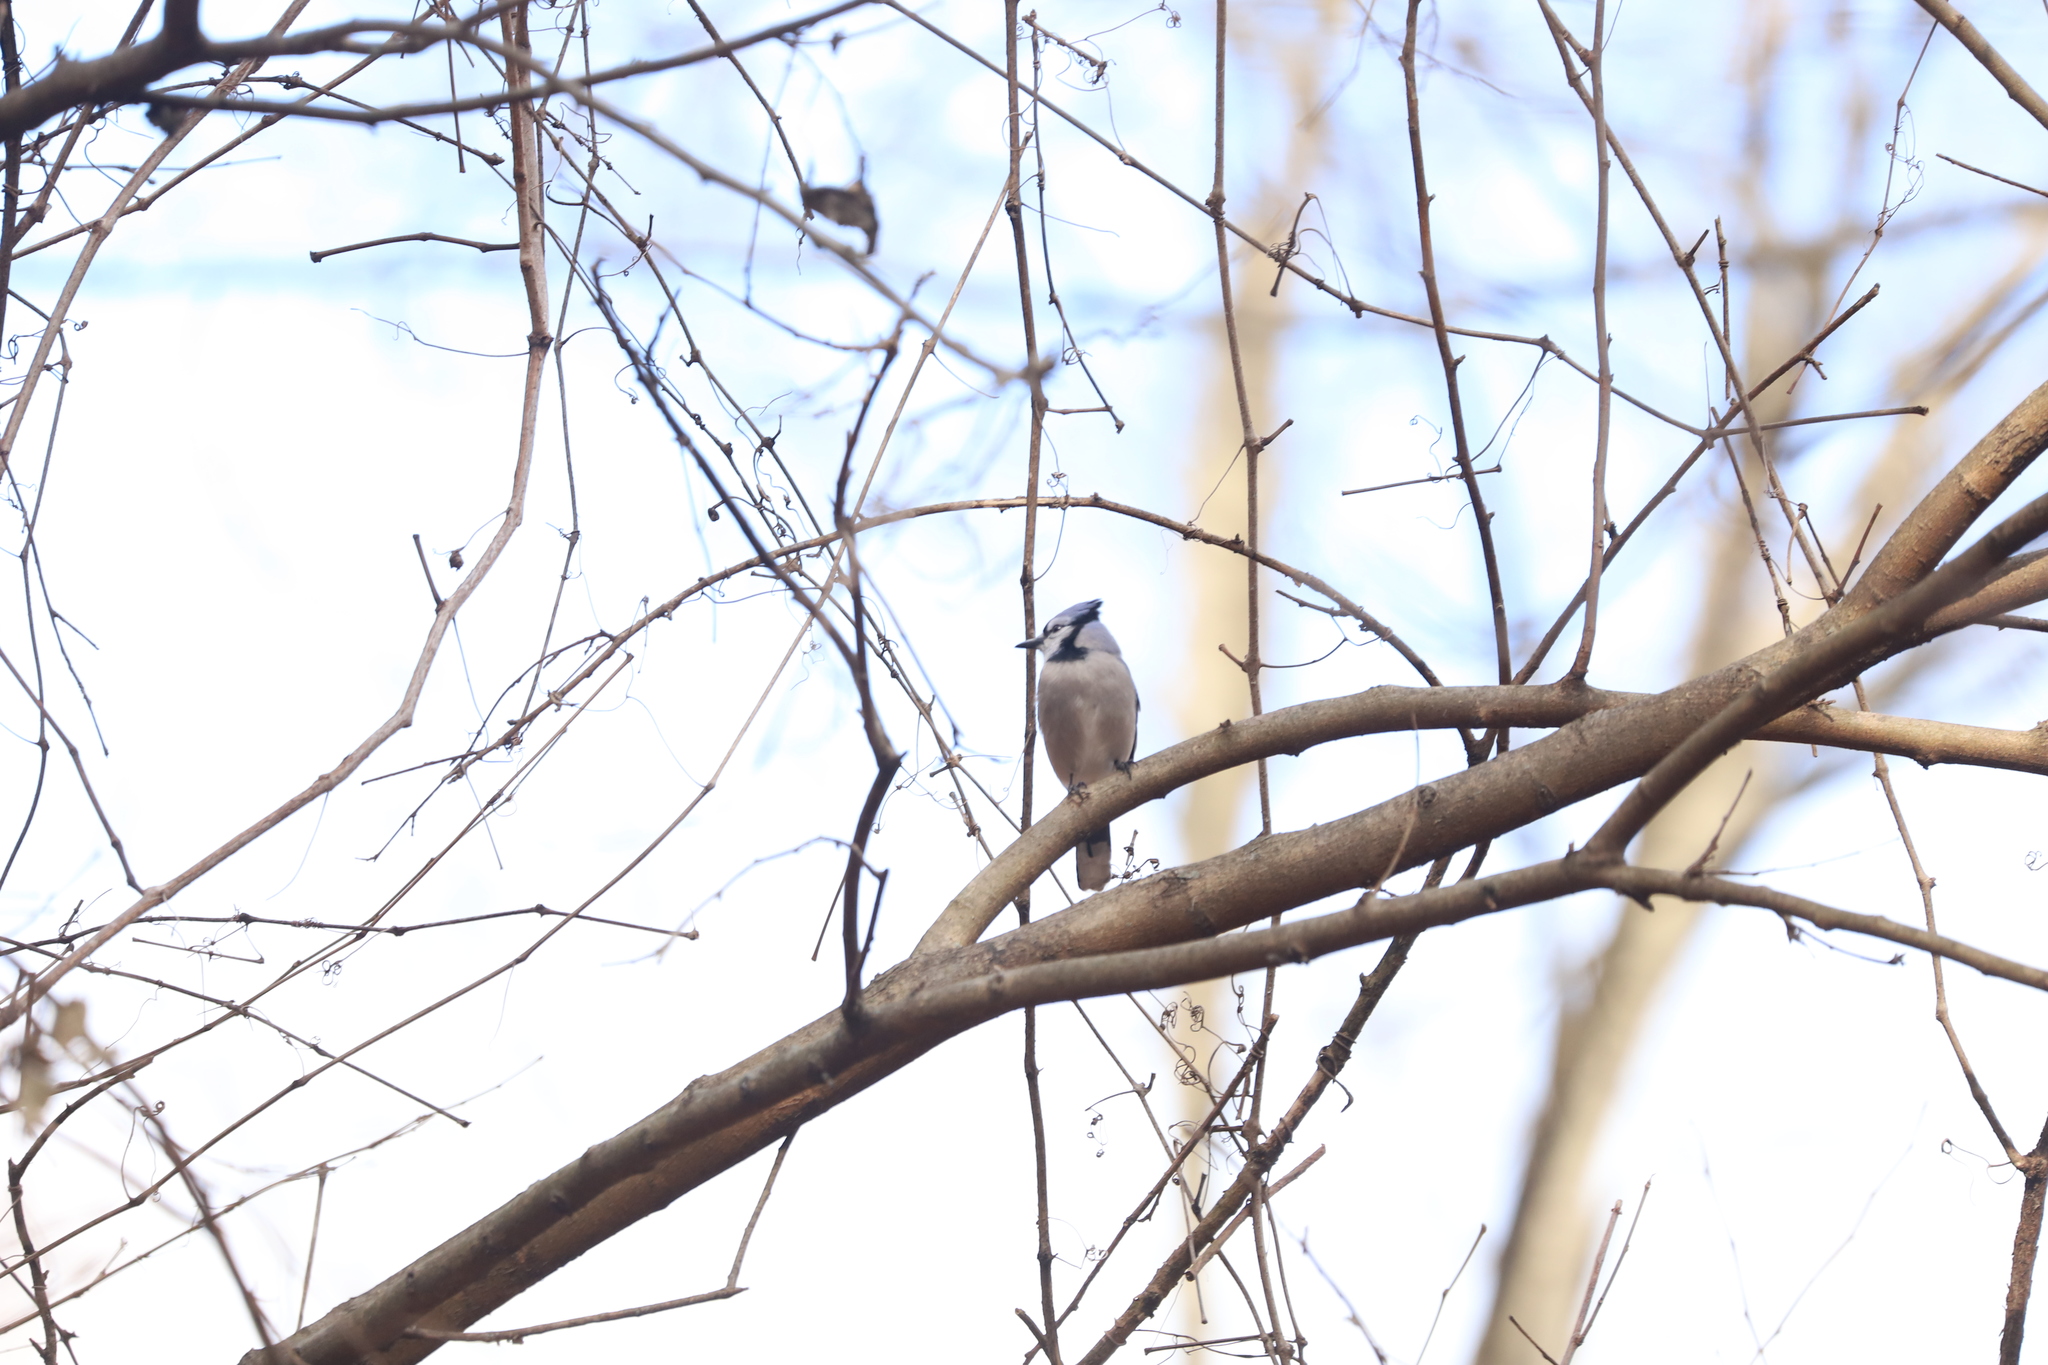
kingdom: Animalia
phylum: Chordata
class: Aves
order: Passeriformes
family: Corvidae
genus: Cyanocitta
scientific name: Cyanocitta cristata
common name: Blue jay
